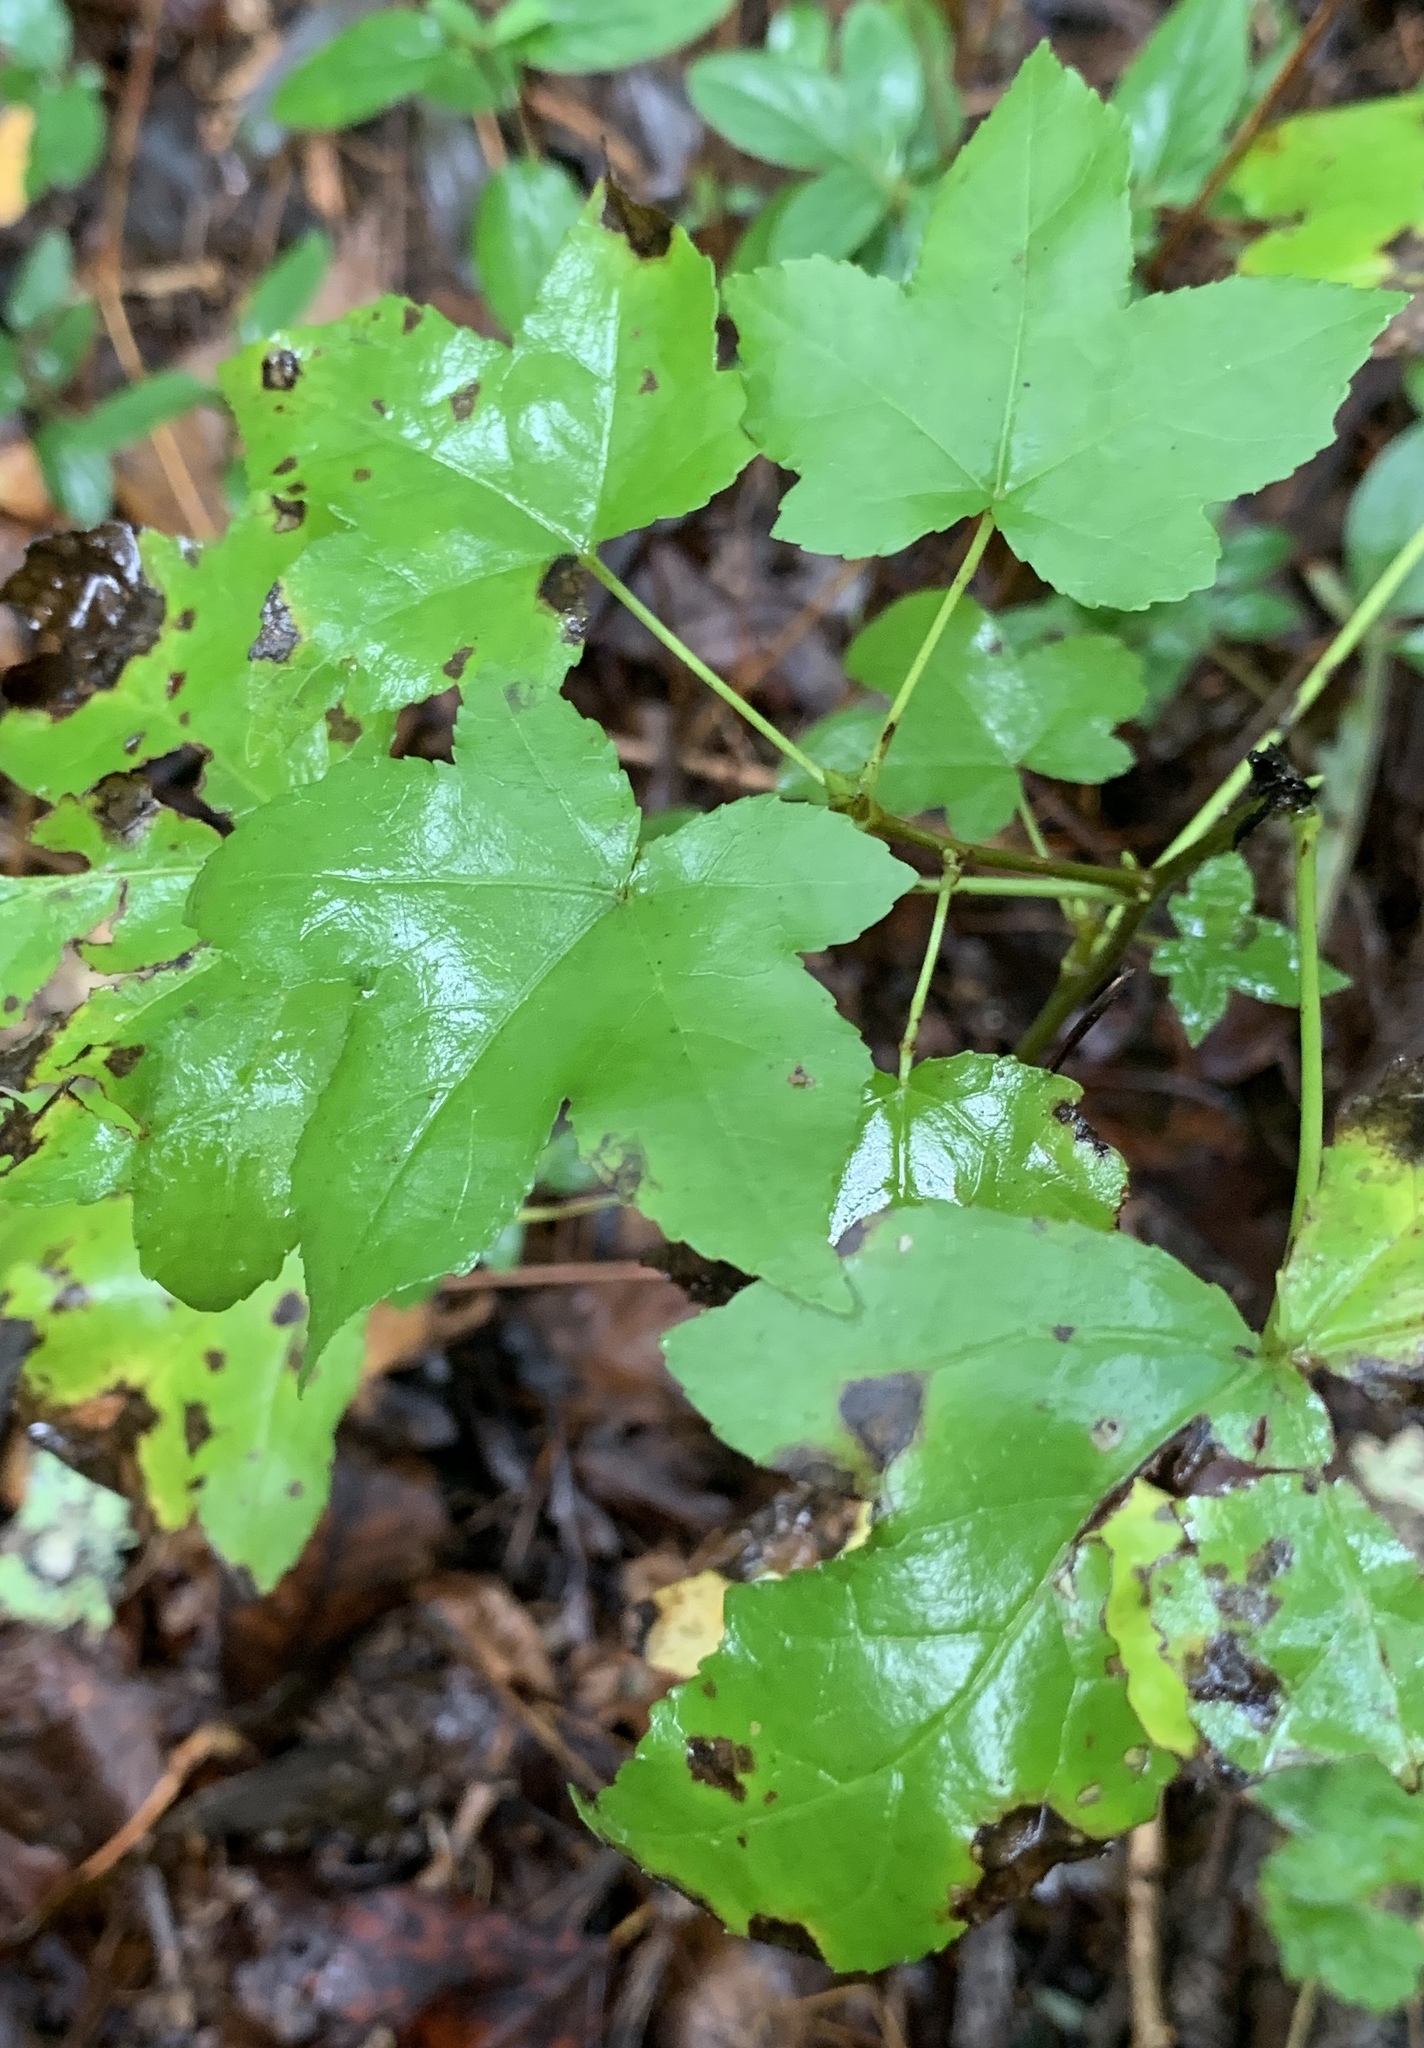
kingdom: Plantae
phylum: Tracheophyta
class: Magnoliopsida
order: Saxifragales
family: Altingiaceae
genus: Liquidambar
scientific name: Liquidambar styraciflua
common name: Sweet gum
